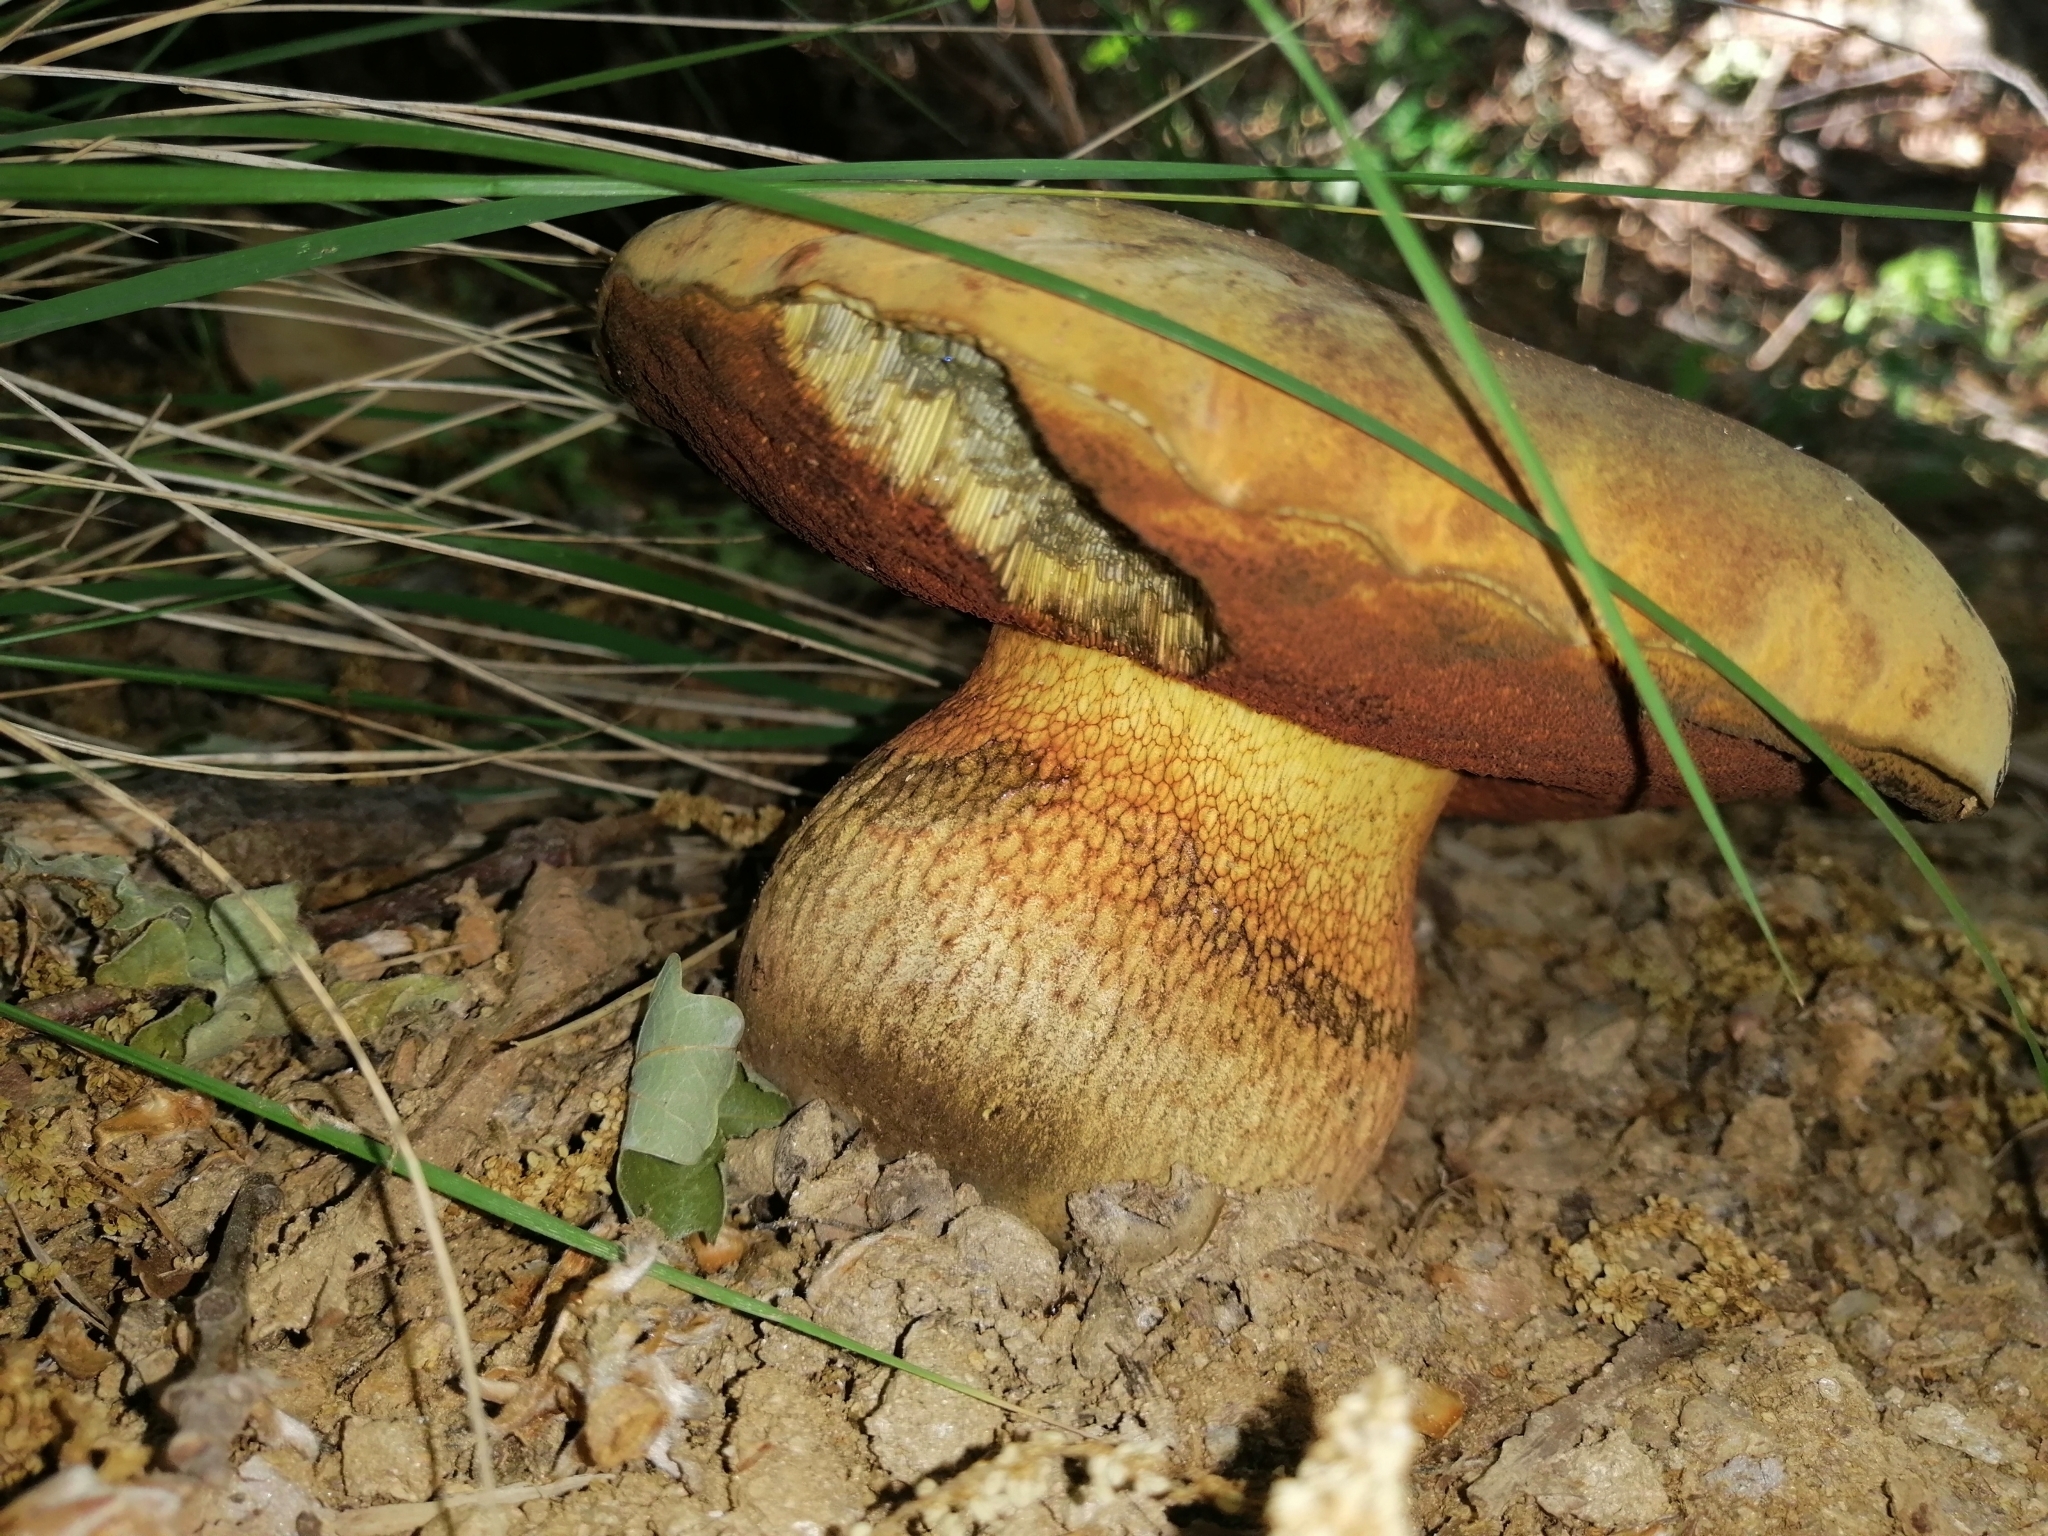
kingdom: Fungi
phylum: Basidiomycota
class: Agaricomycetes
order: Boletales
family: Boletaceae
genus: Suillellus
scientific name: Suillellus luridus
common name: Lurid bolete
